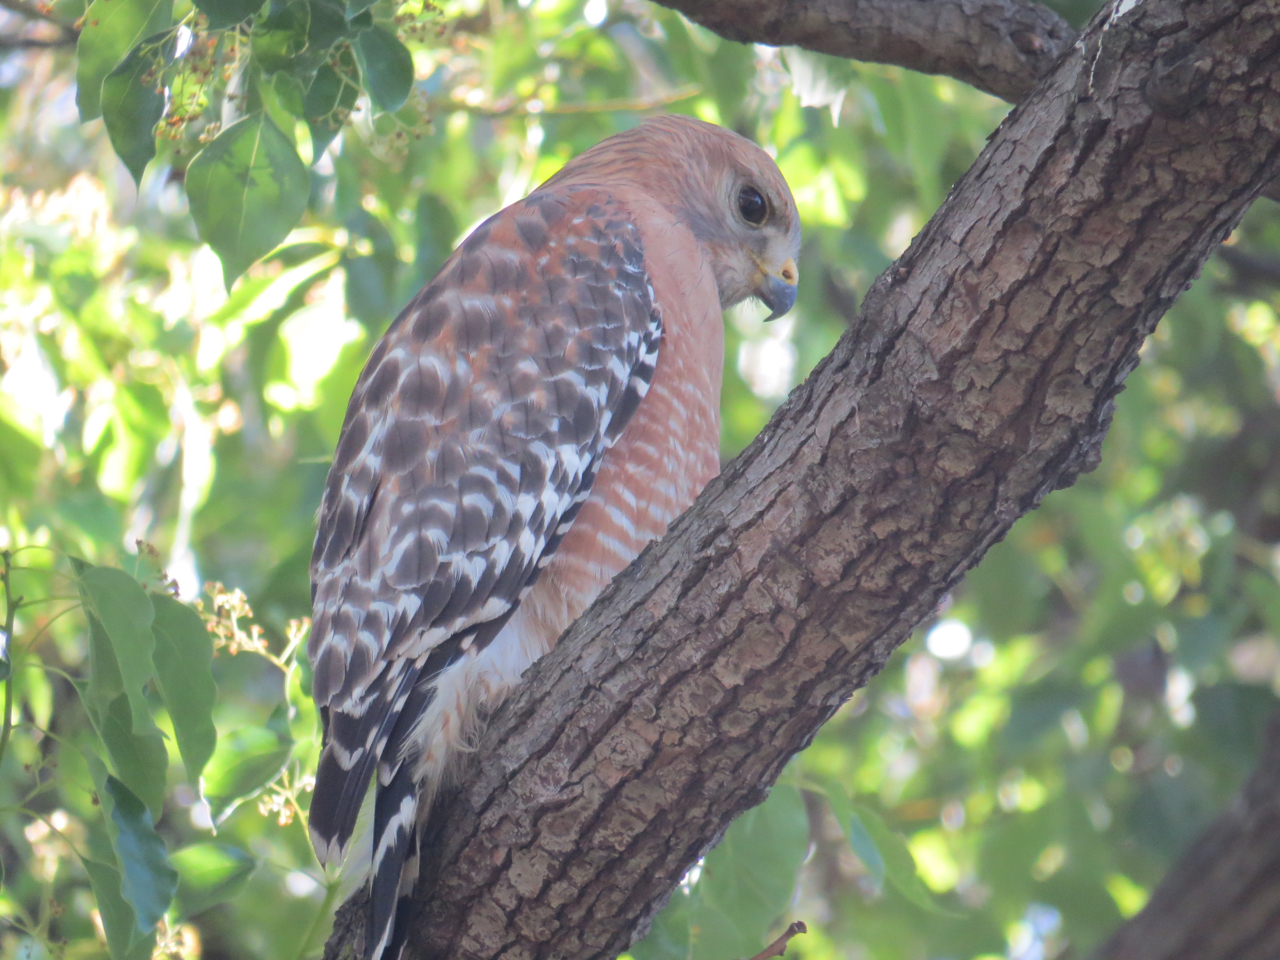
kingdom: Animalia
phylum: Chordata
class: Aves
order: Accipitriformes
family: Accipitridae
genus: Buteo
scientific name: Buteo lineatus
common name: Red-shouldered hawk
